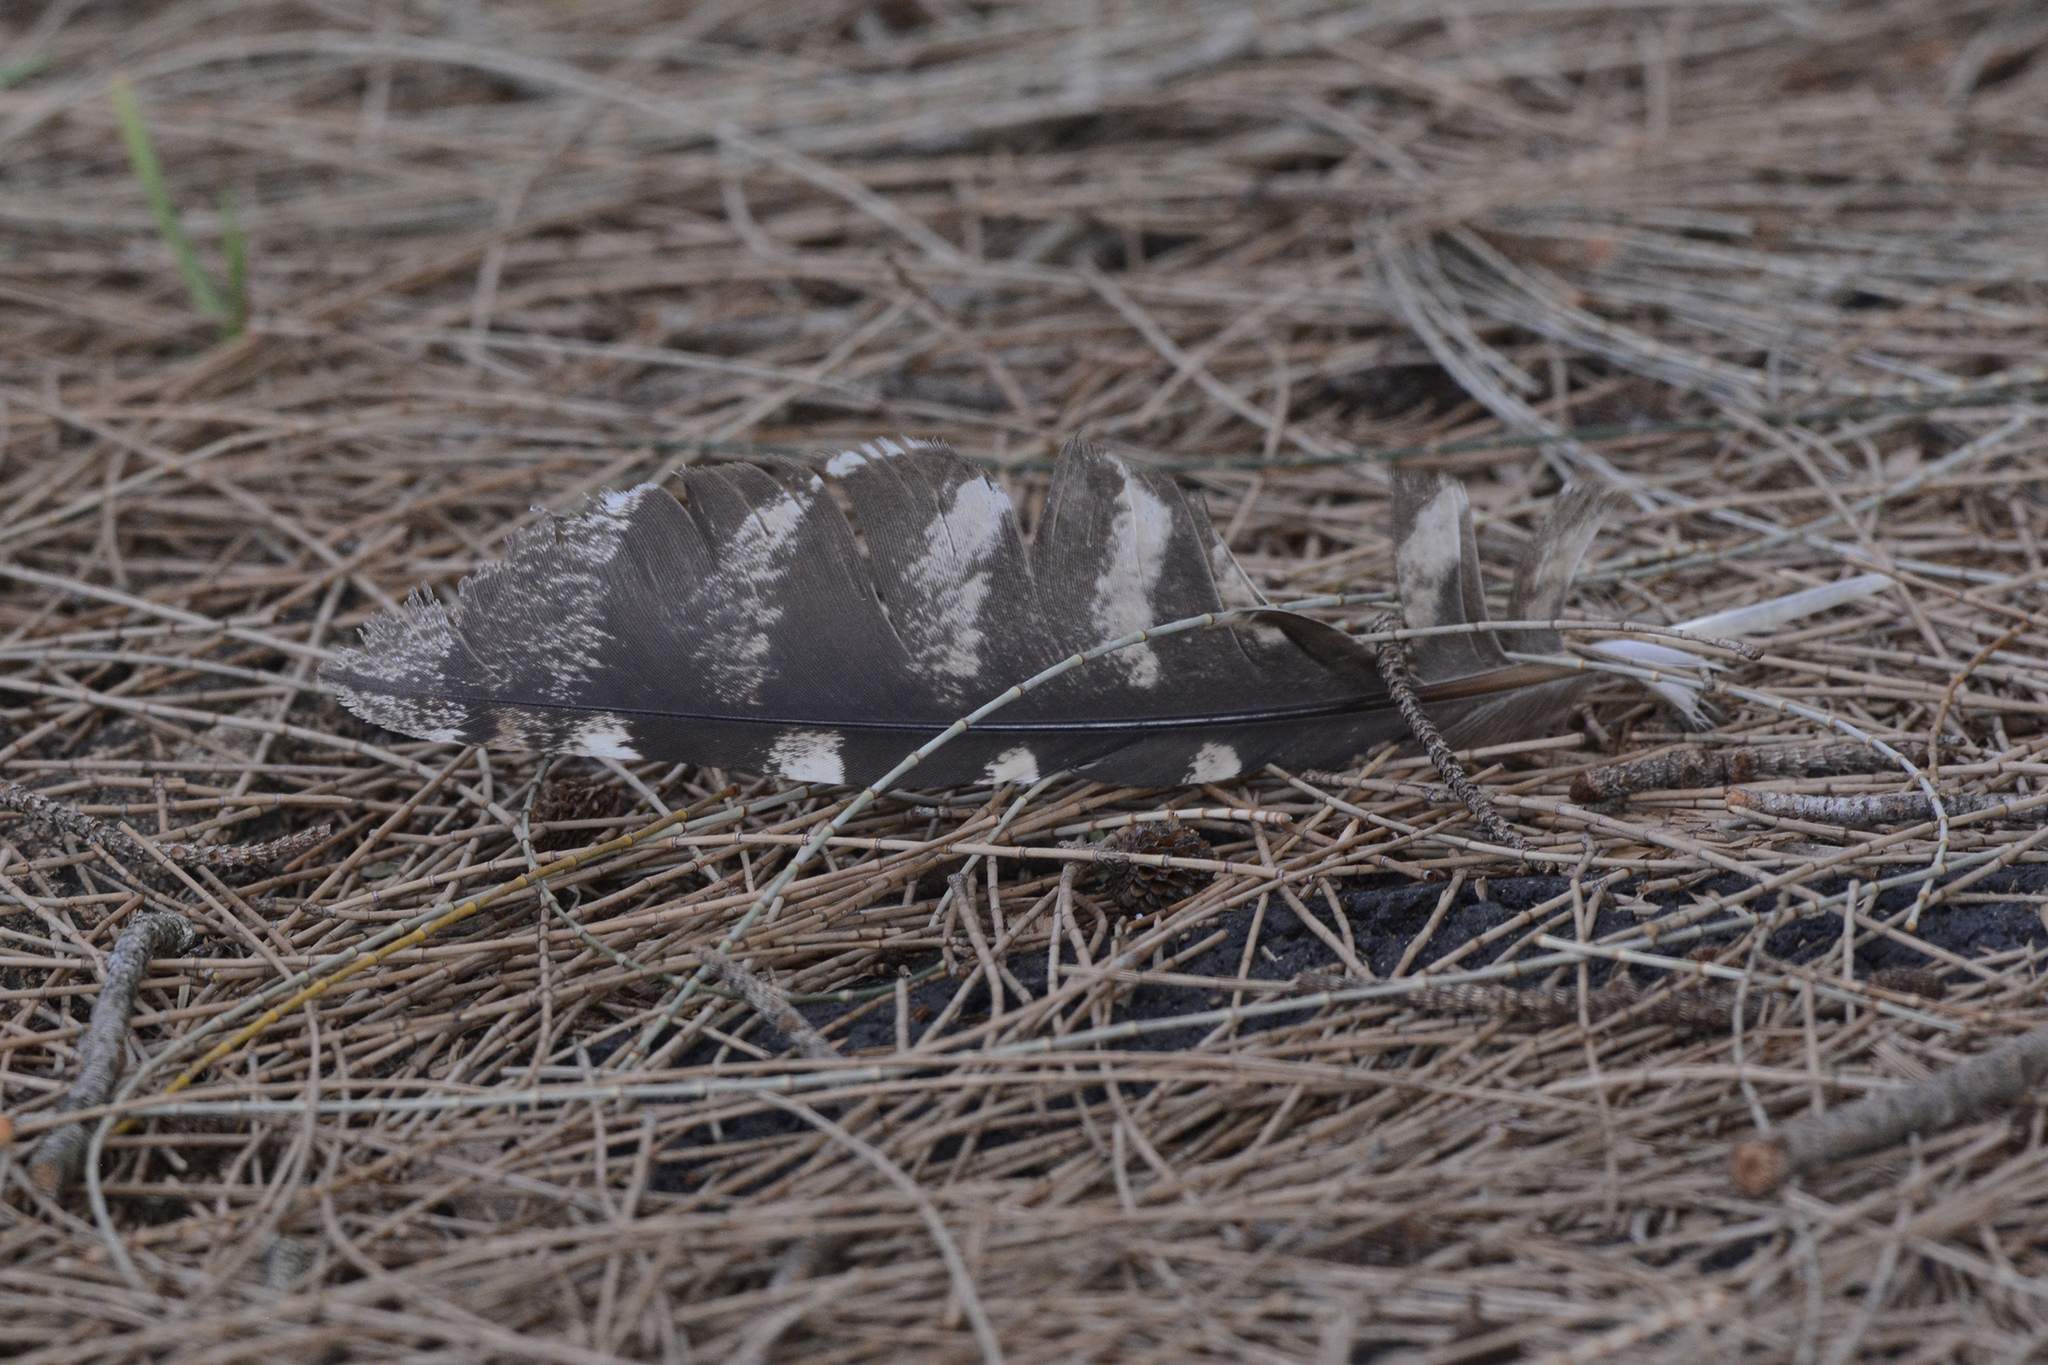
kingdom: Animalia
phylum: Chordata
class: Aves
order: Caprimulgiformes
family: Podargidae
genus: Podargus
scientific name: Podargus strigoides
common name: Tawny frogmouth
